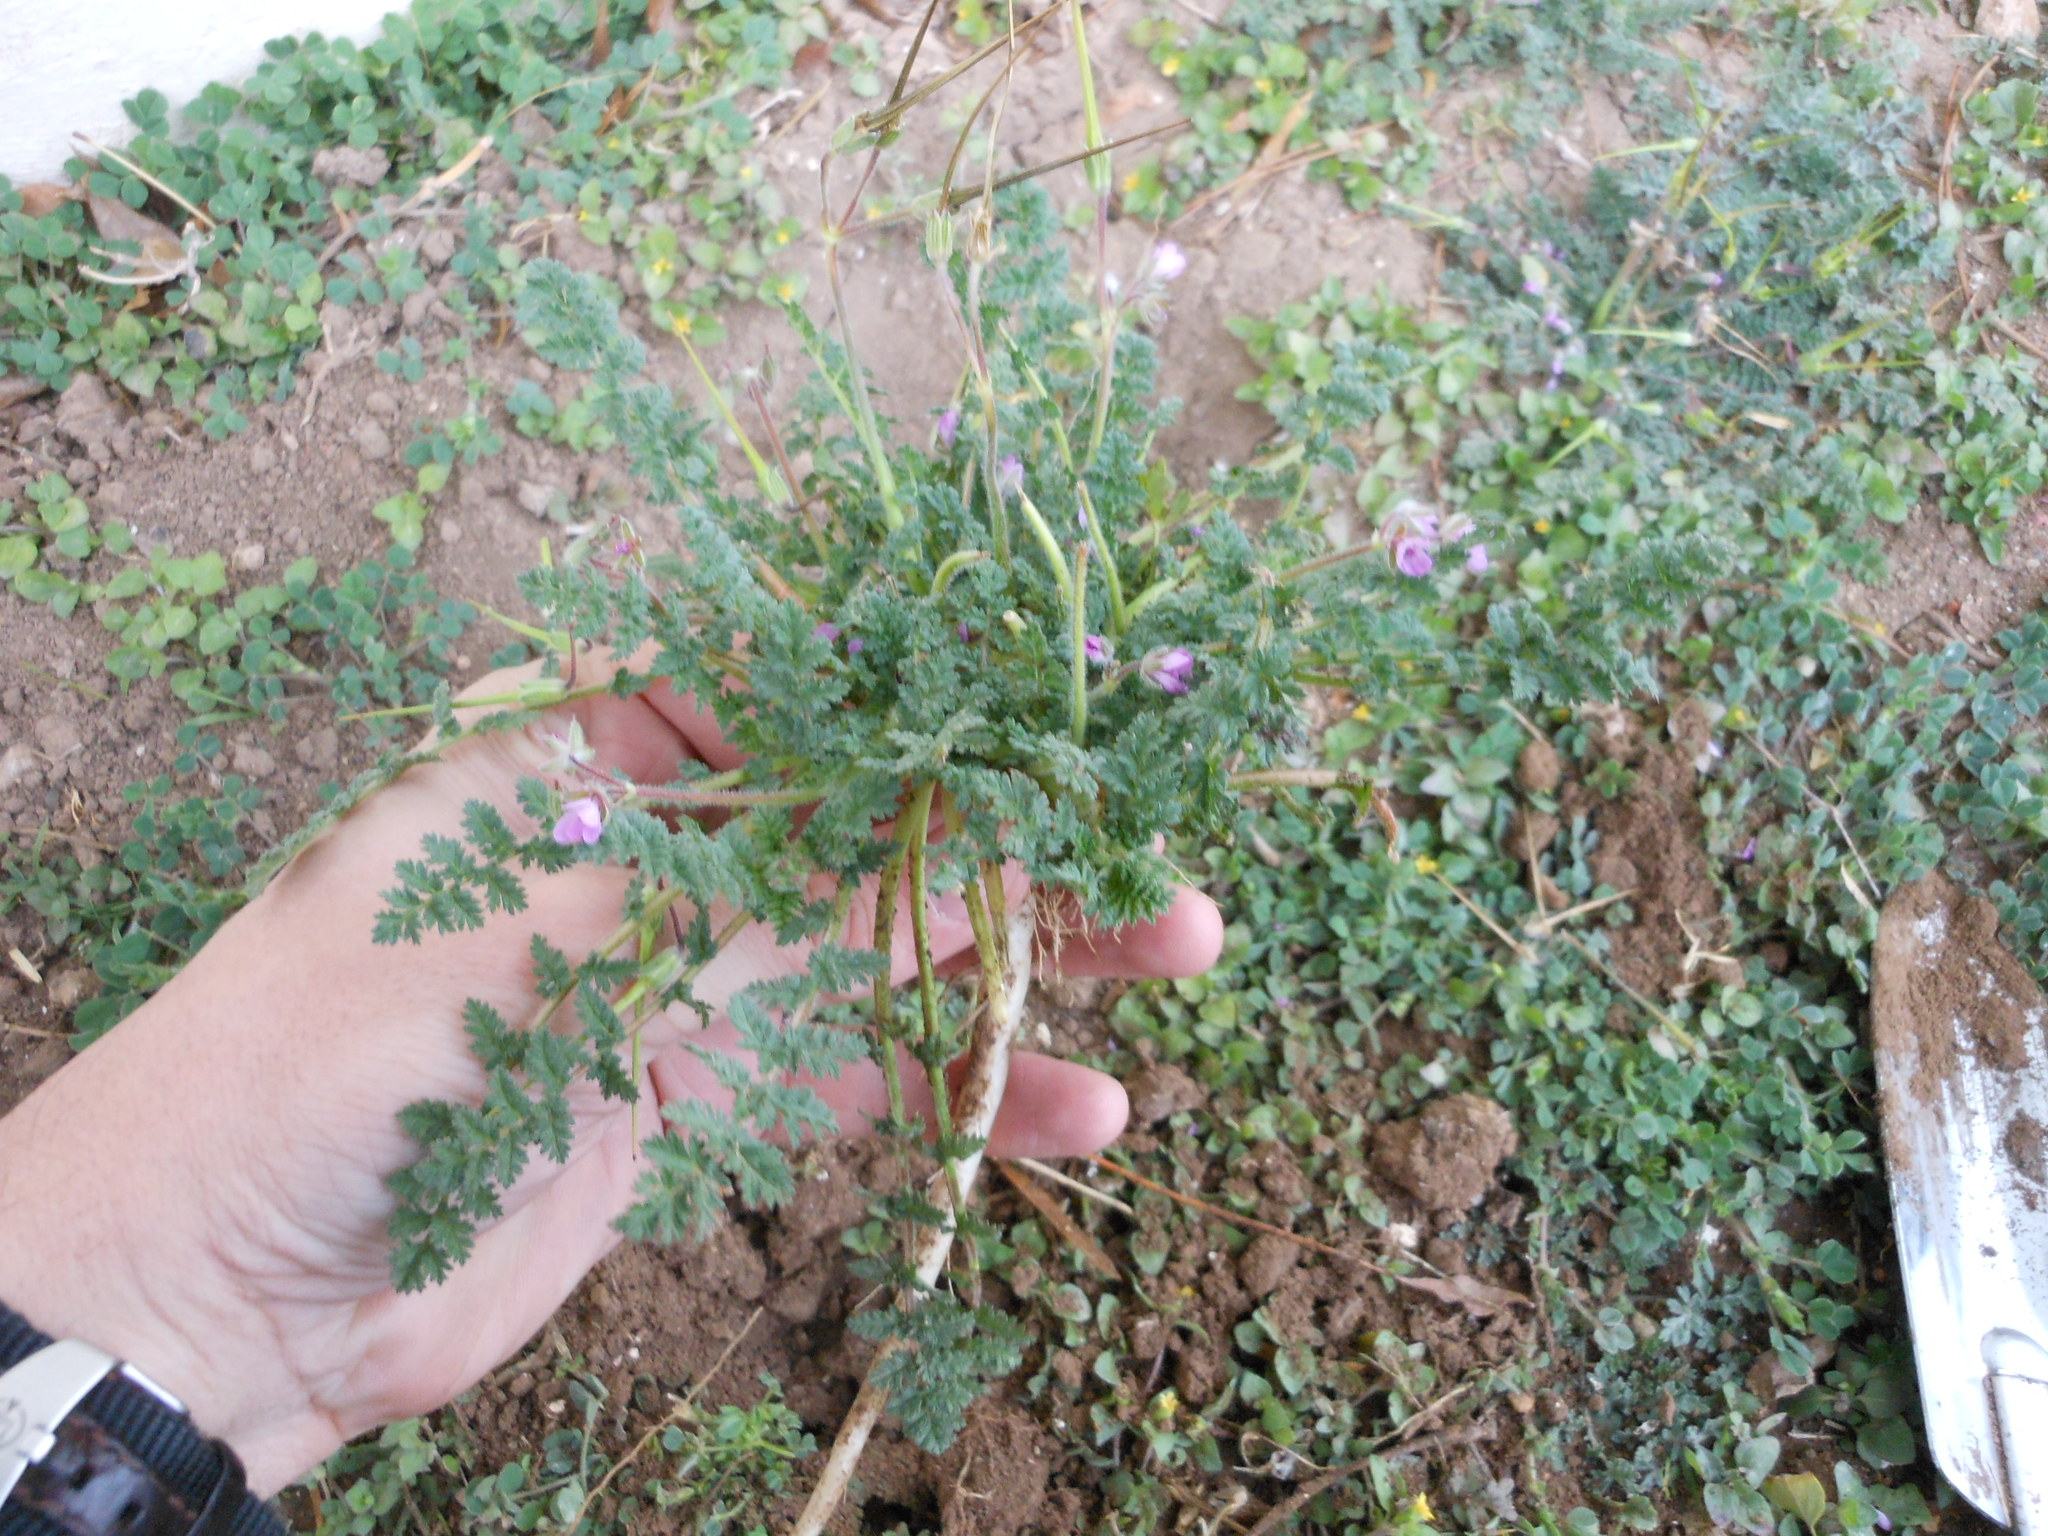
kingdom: Plantae
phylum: Tracheophyta
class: Magnoliopsida
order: Geraniales
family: Geraniaceae
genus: Erodium
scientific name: Erodium cicutarium
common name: Common stork's-bill
